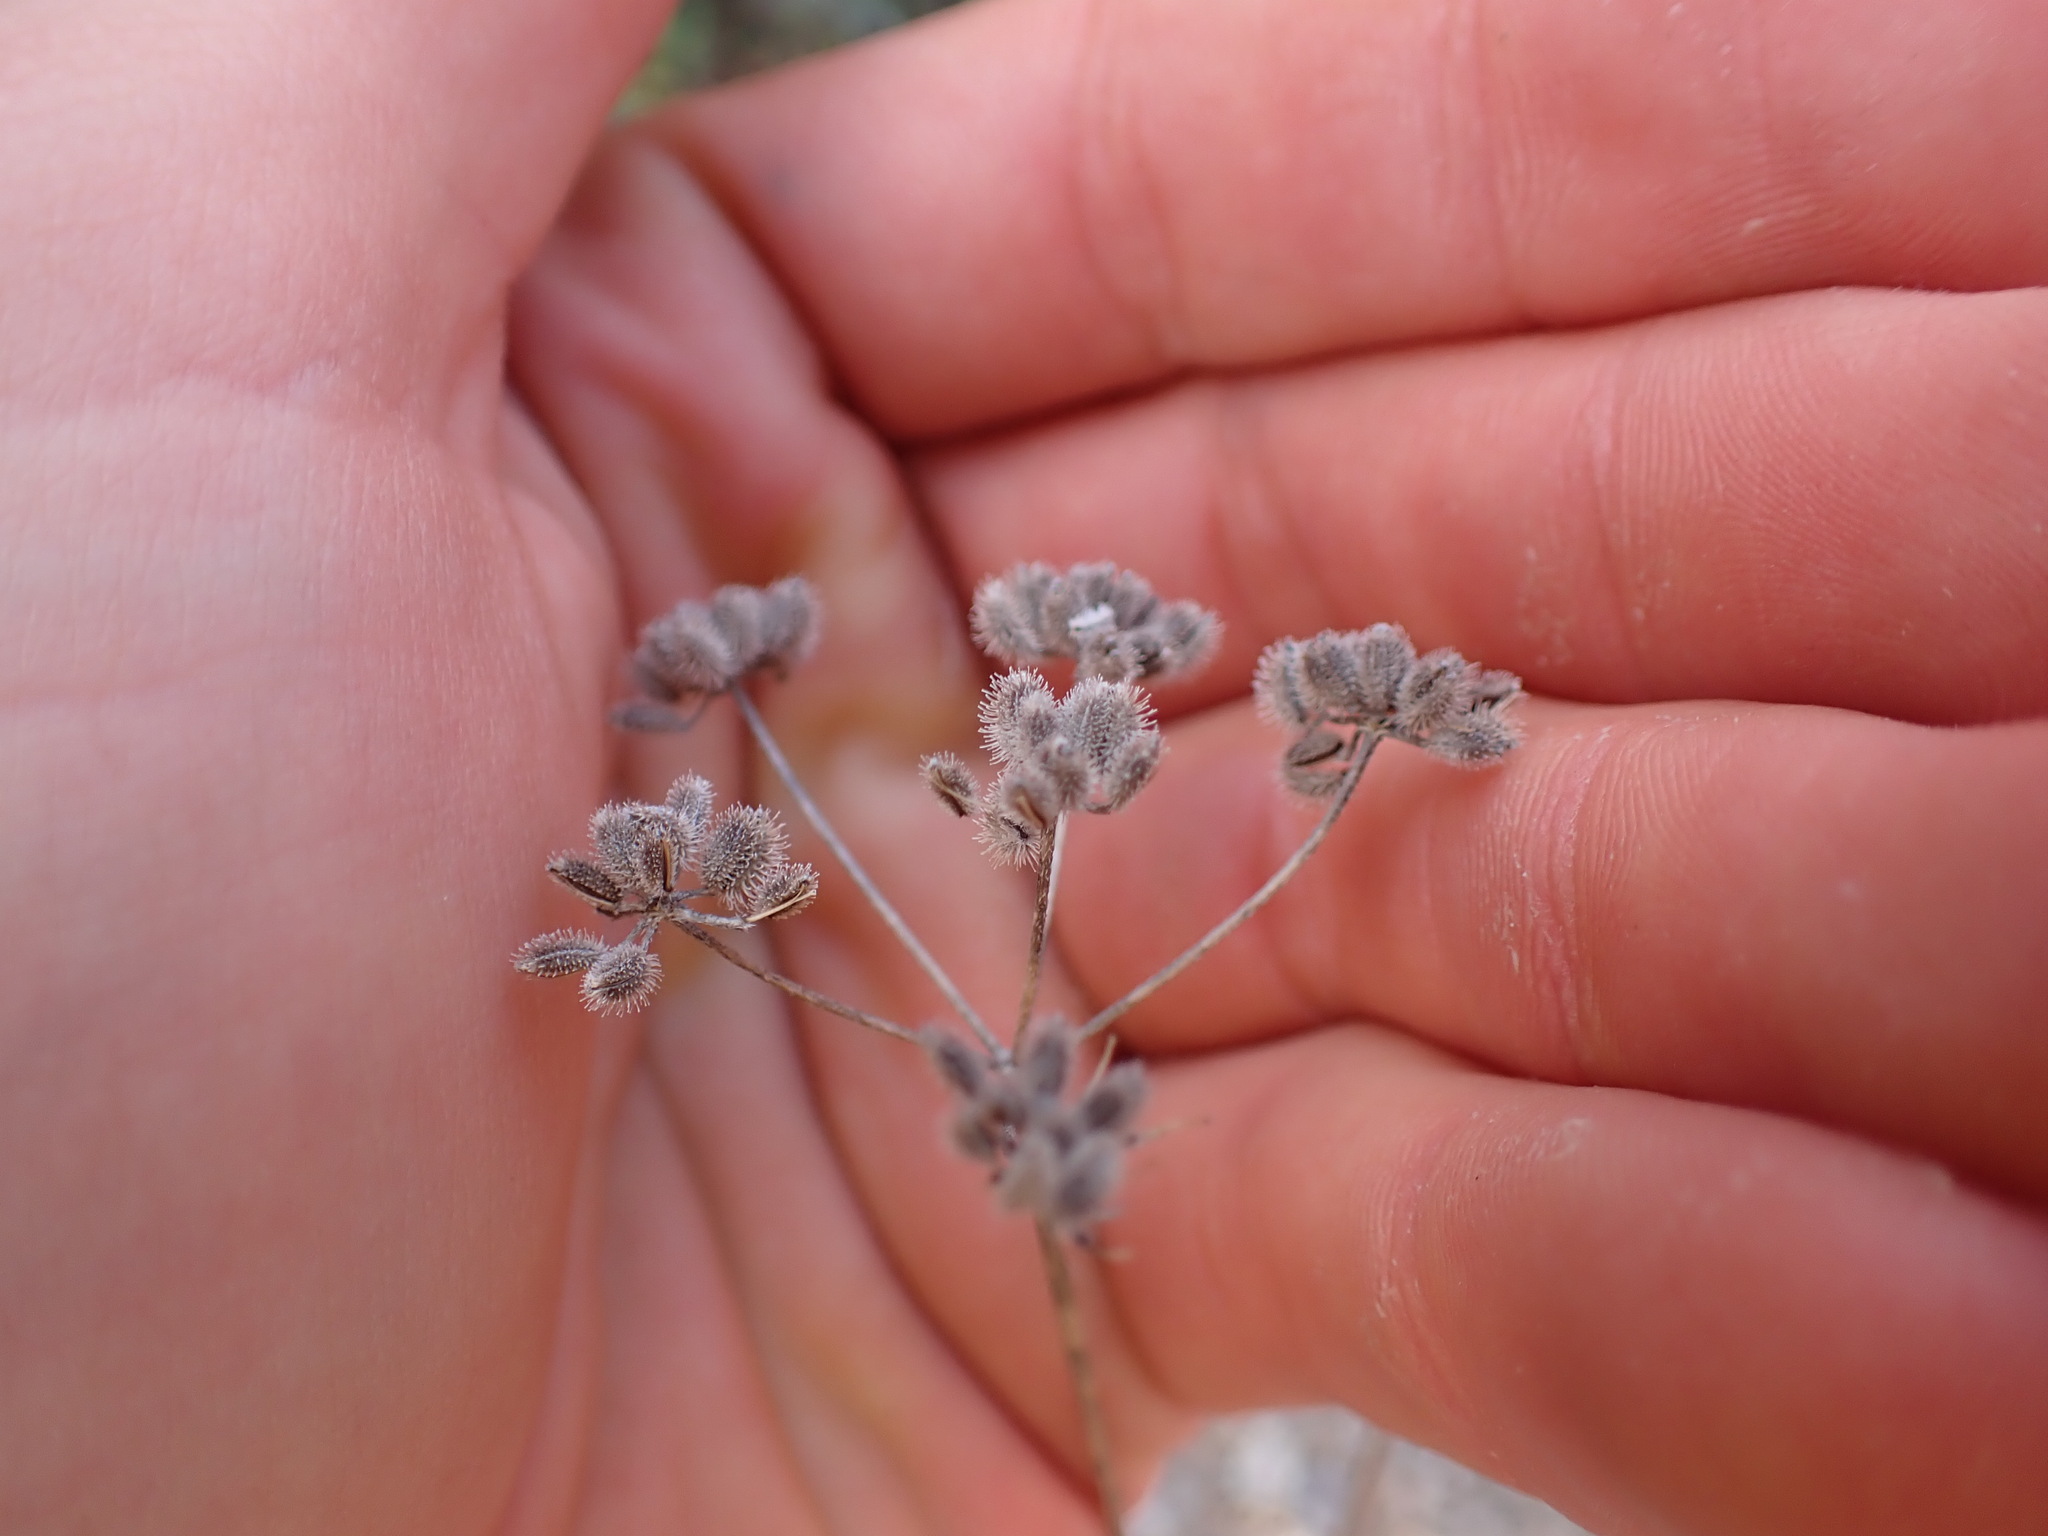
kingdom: Plantae
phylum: Tracheophyta
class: Magnoliopsida
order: Apiales
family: Apiaceae
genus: Torilis
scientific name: Torilis arvensis
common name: Spreading hedge-parsley
